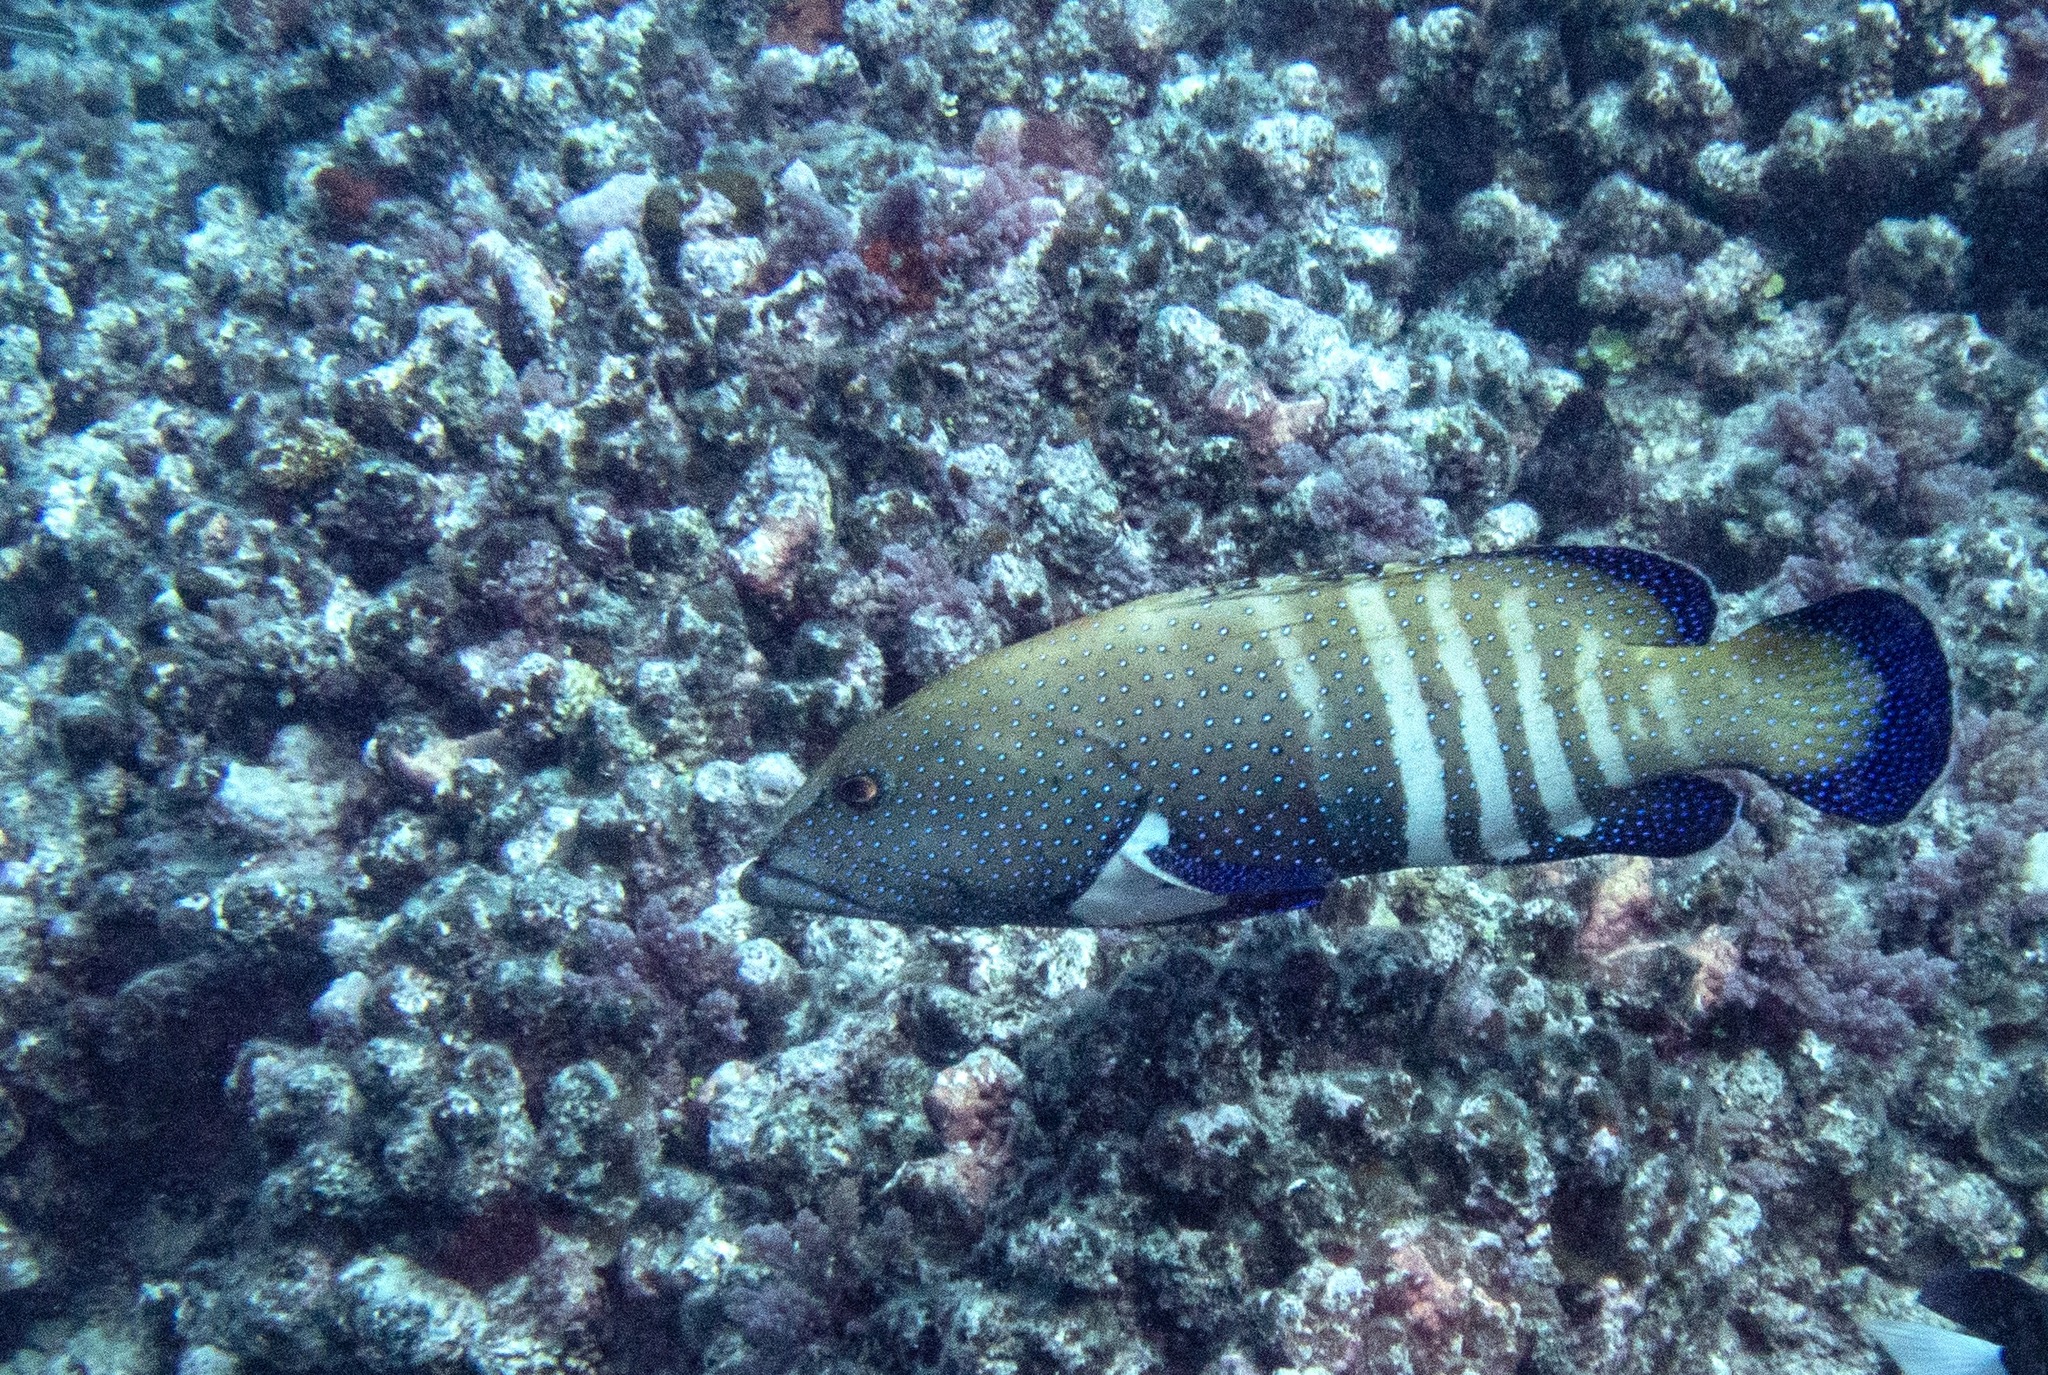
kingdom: Animalia
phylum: Chordata
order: Perciformes
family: Serranidae
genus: Cephalopholis
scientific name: Cephalopholis argus
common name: Peacock grouper
